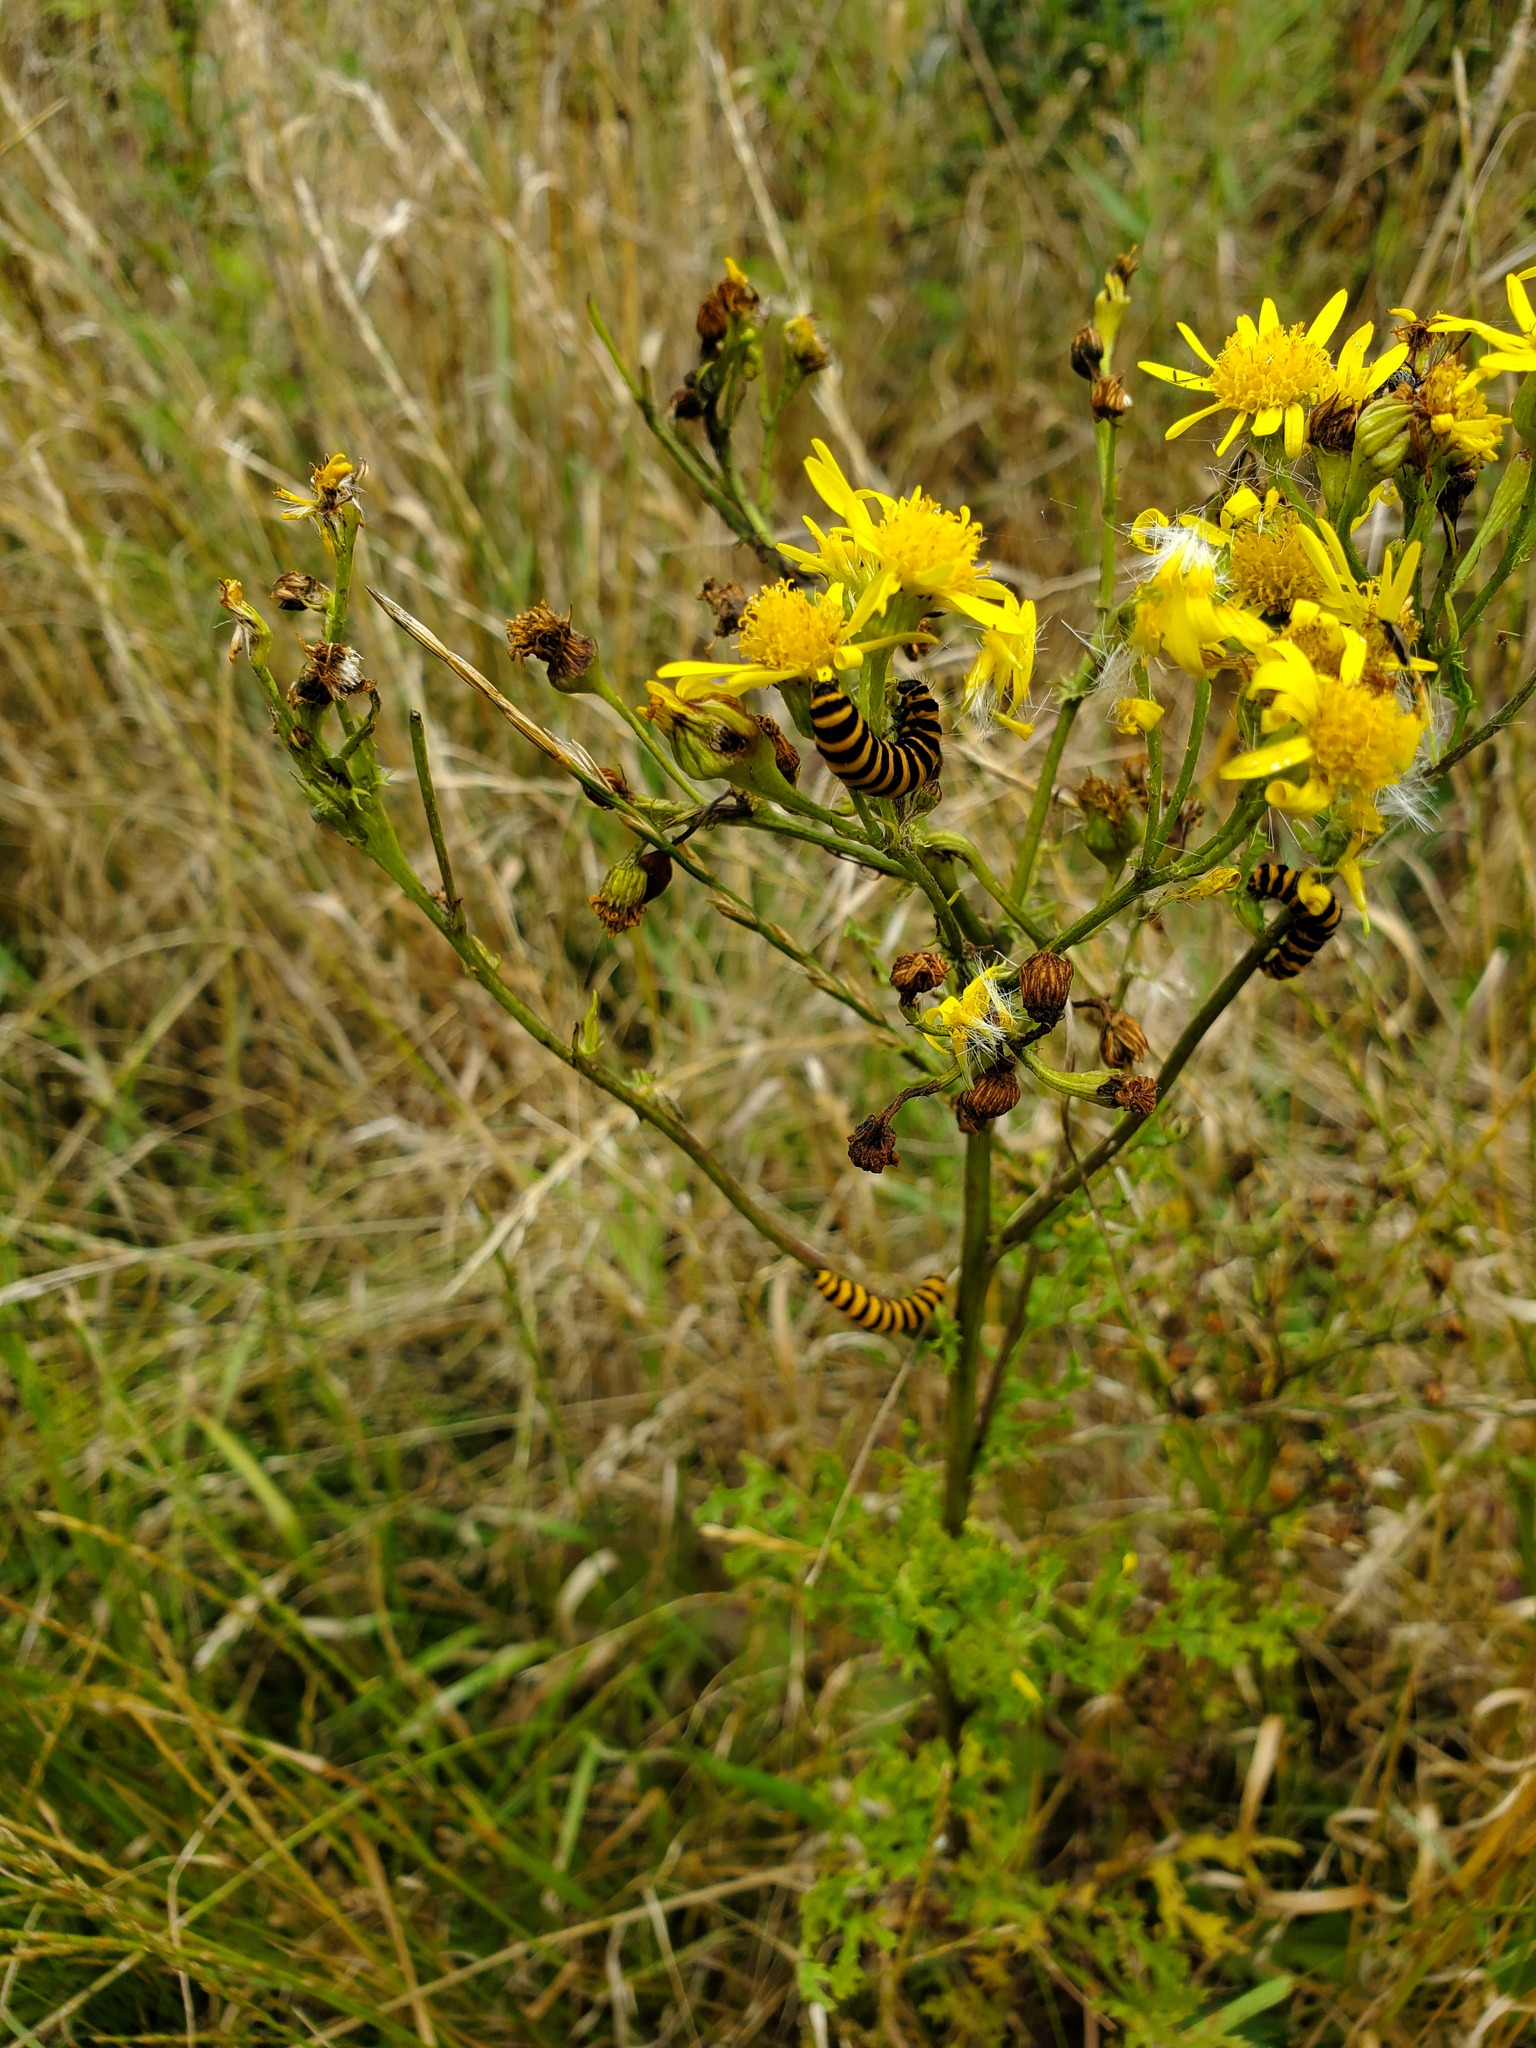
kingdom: Animalia
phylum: Arthropoda
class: Insecta
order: Lepidoptera
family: Erebidae
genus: Tyria
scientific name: Tyria jacobaeae
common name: Cinnabar
